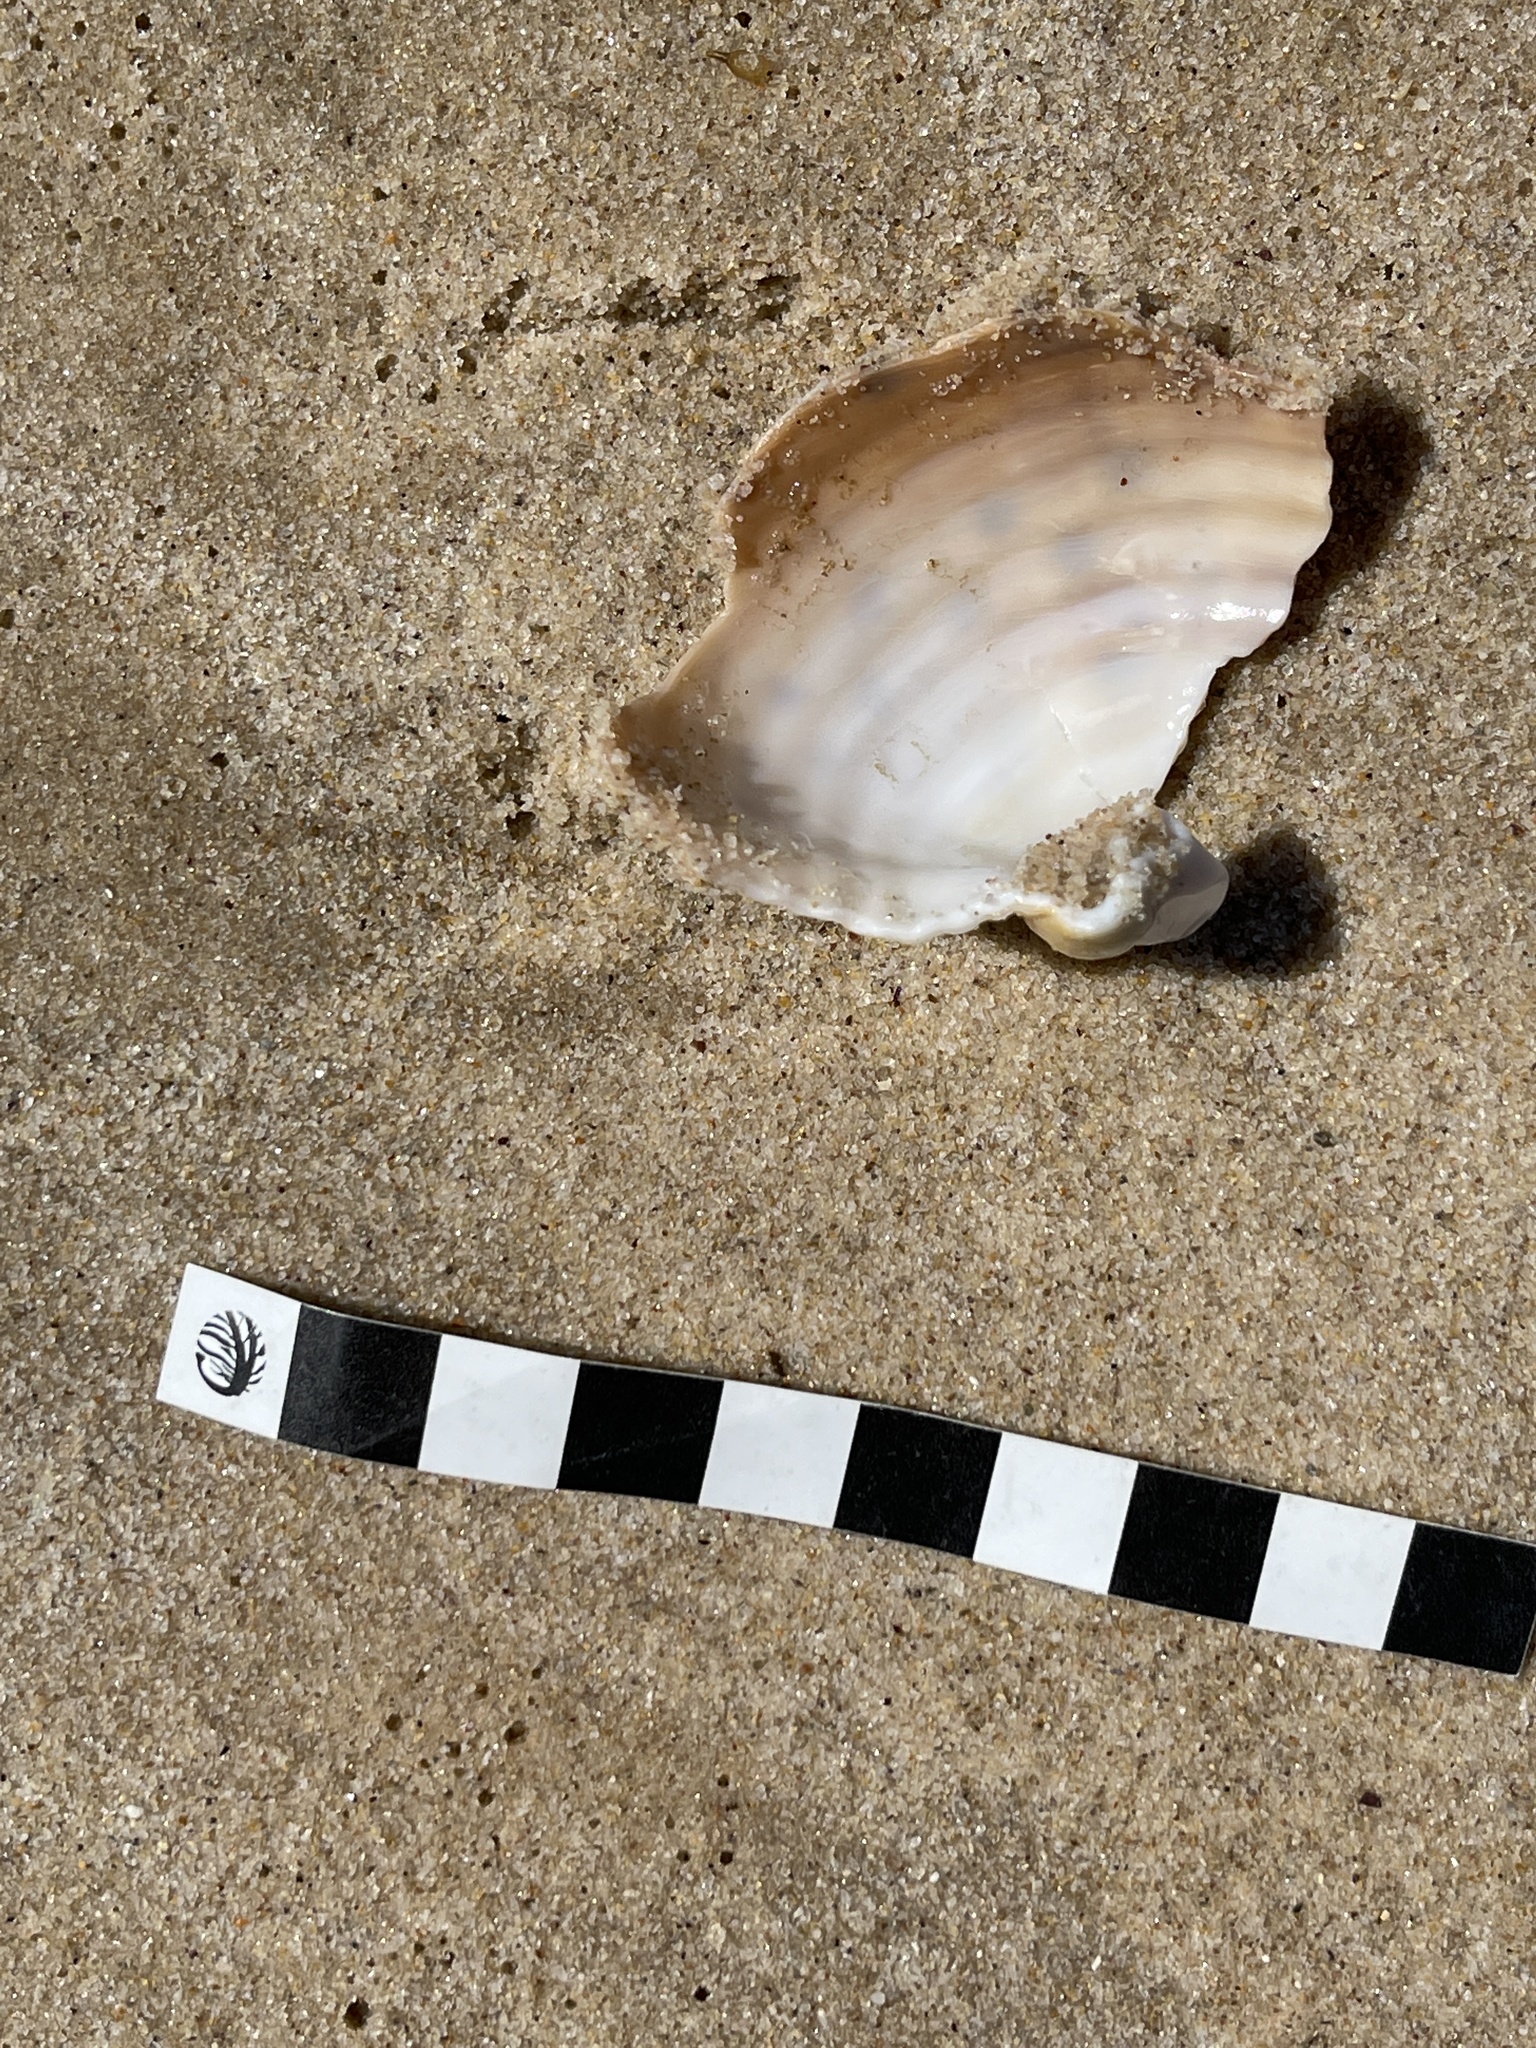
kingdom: Animalia
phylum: Mollusca
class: Gastropoda
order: Littorinimorpha
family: Tonnidae
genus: Tonna
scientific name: Tonna tankervillii
